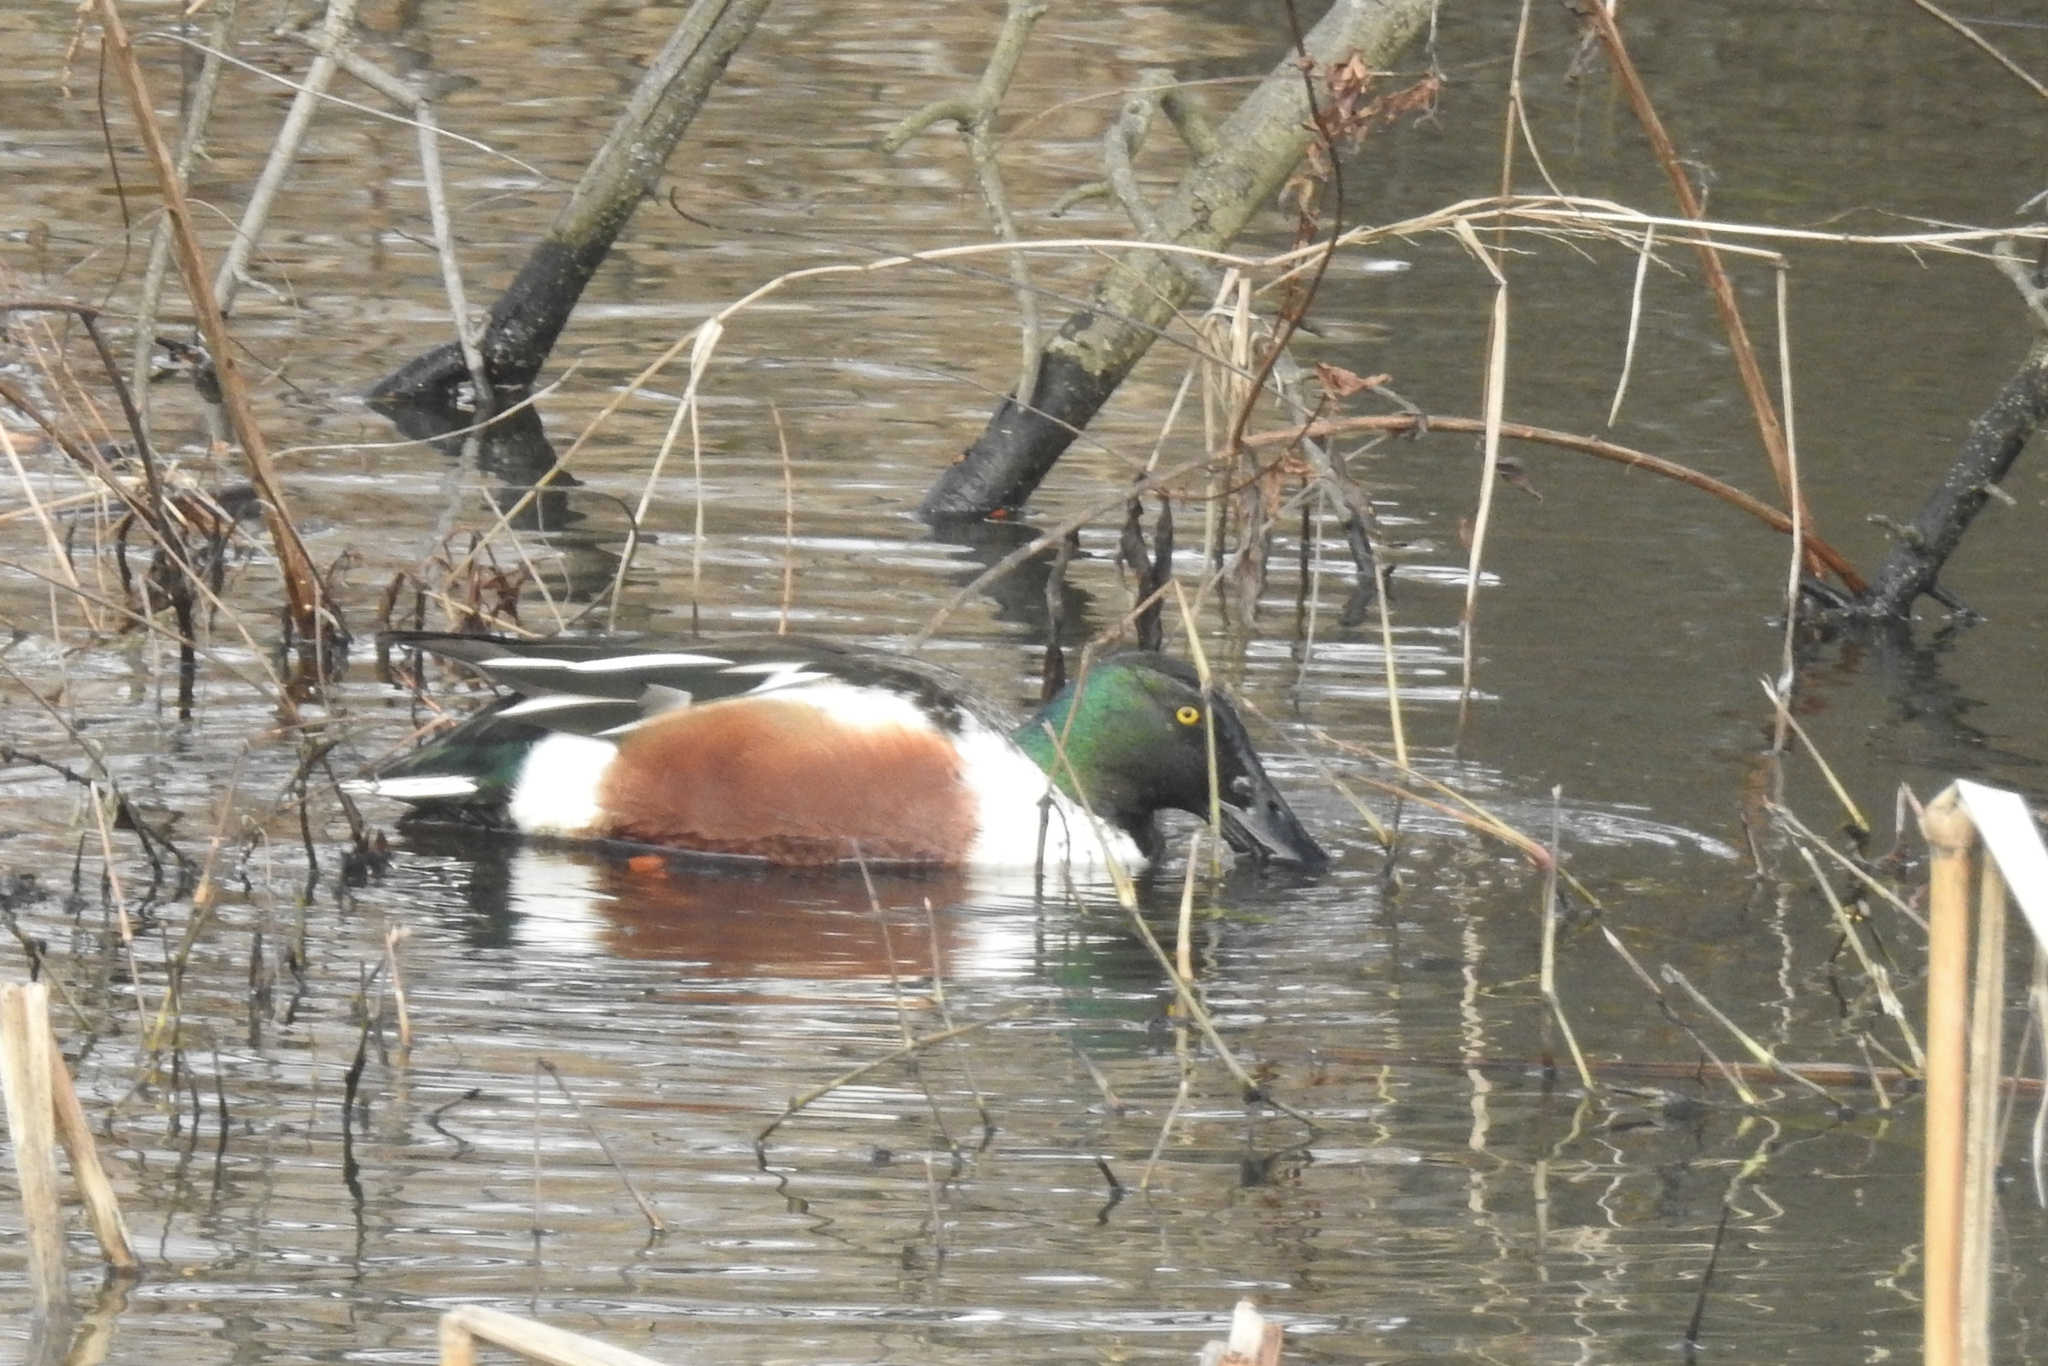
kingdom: Animalia
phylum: Chordata
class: Aves
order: Anseriformes
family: Anatidae
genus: Spatula
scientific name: Spatula clypeata
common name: Northern shoveler
